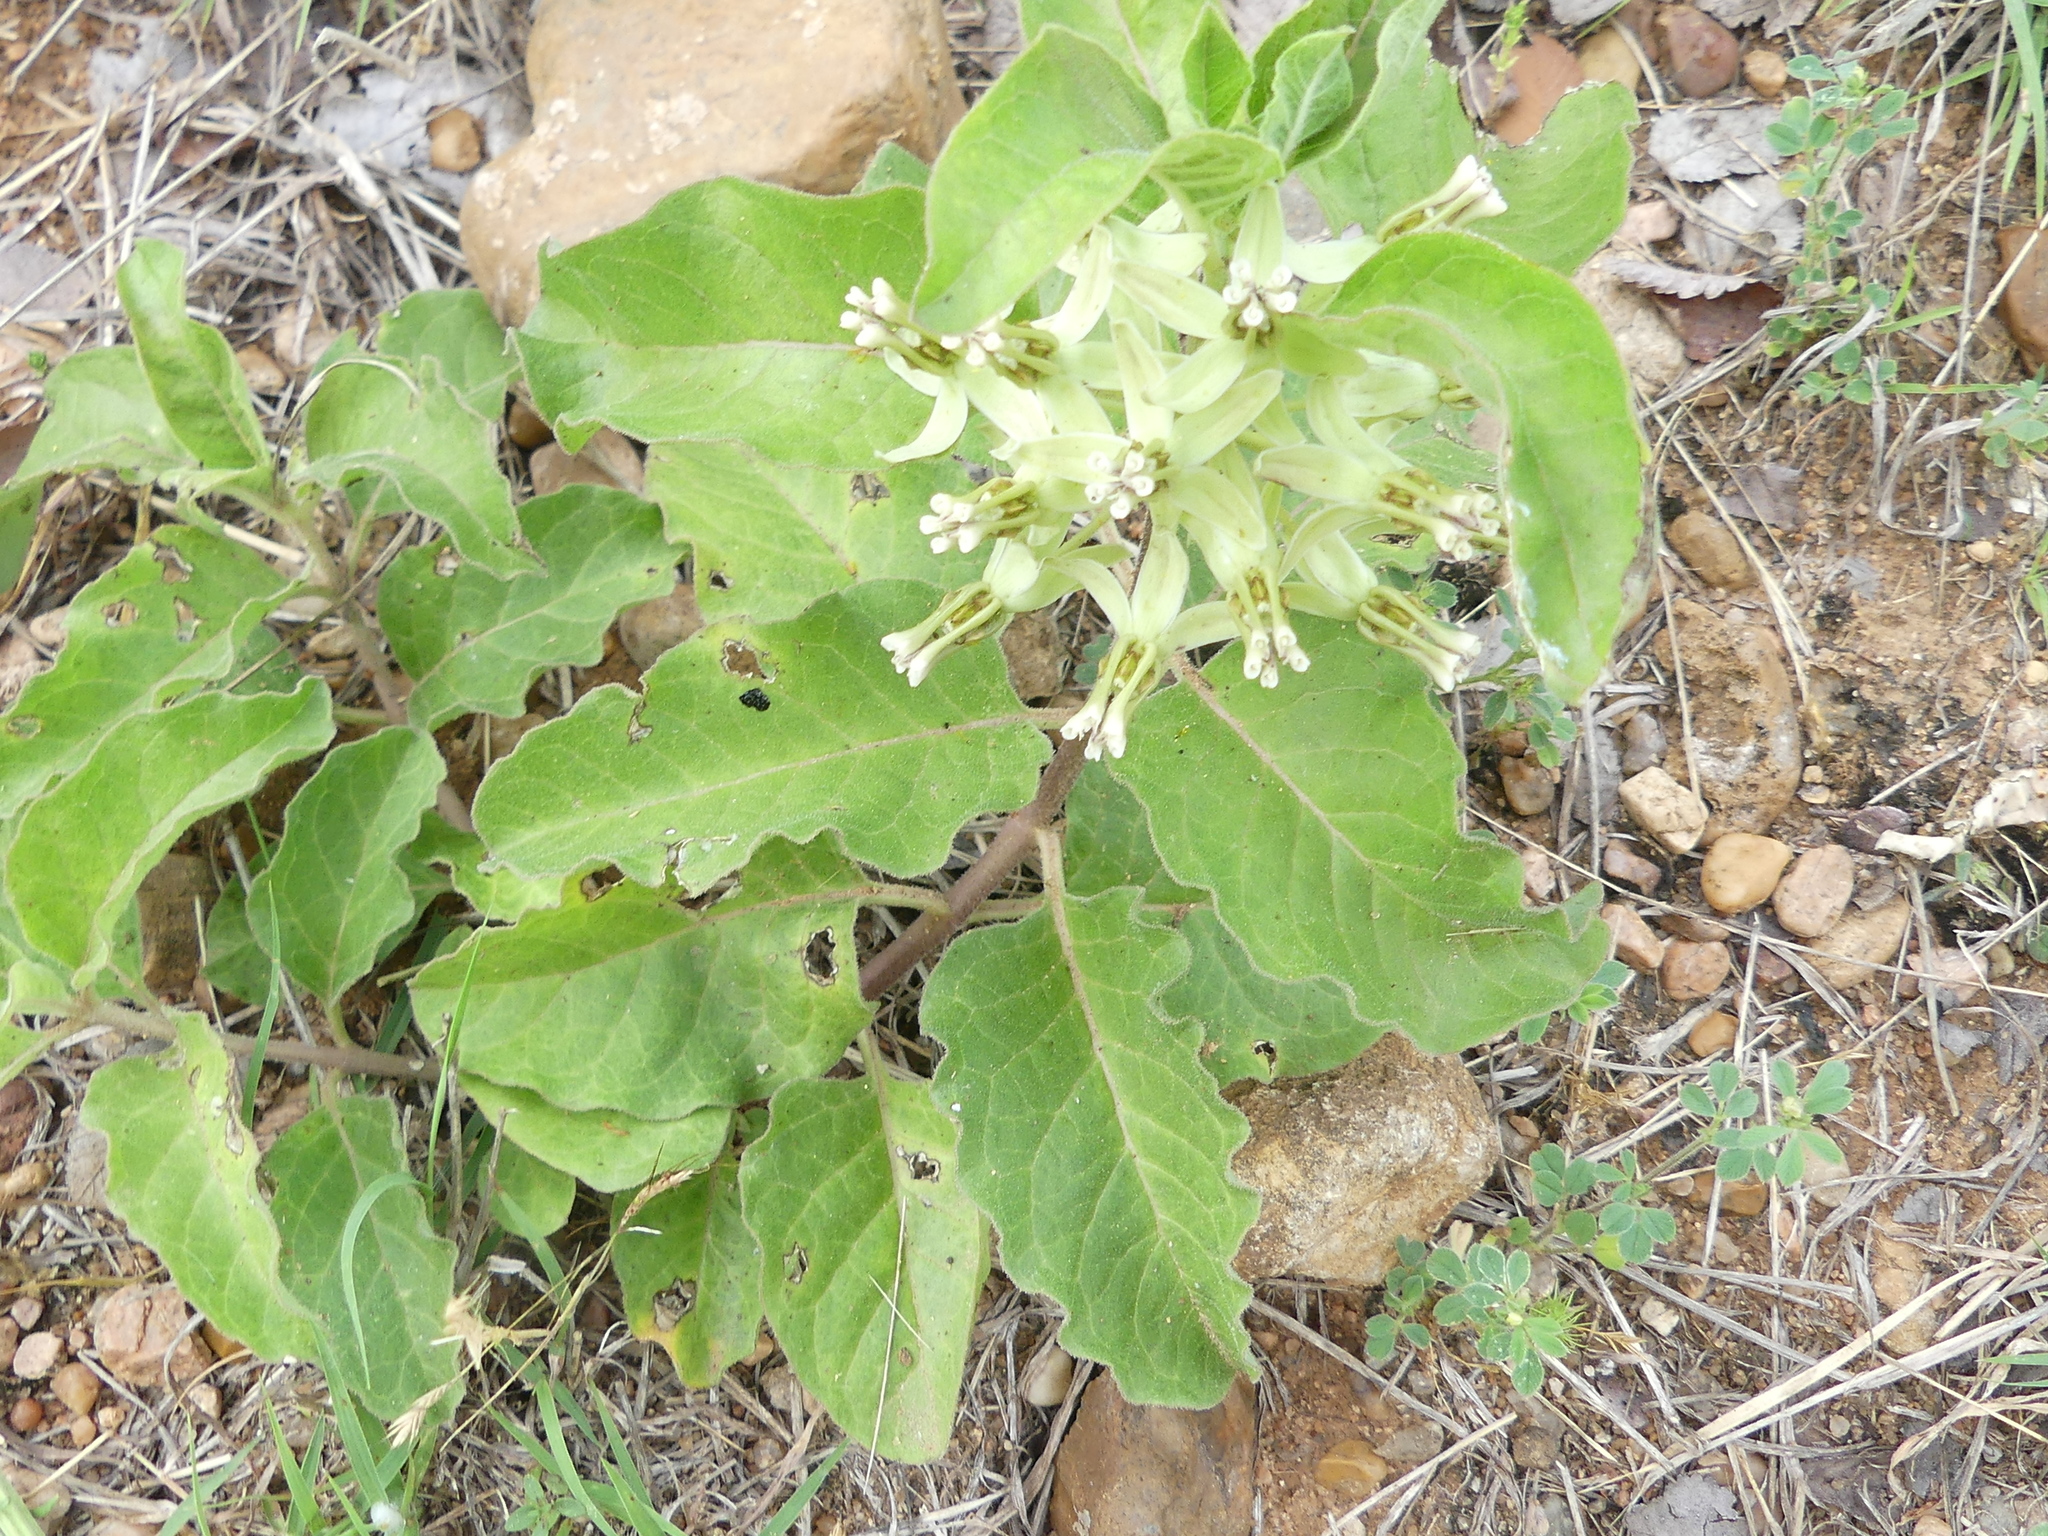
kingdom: Plantae
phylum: Tracheophyta
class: Magnoliopsida
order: Gentianales
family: Apocynaceae
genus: Asclepias
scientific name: Asclepias oenotheroides
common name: Zizotes milkweed
